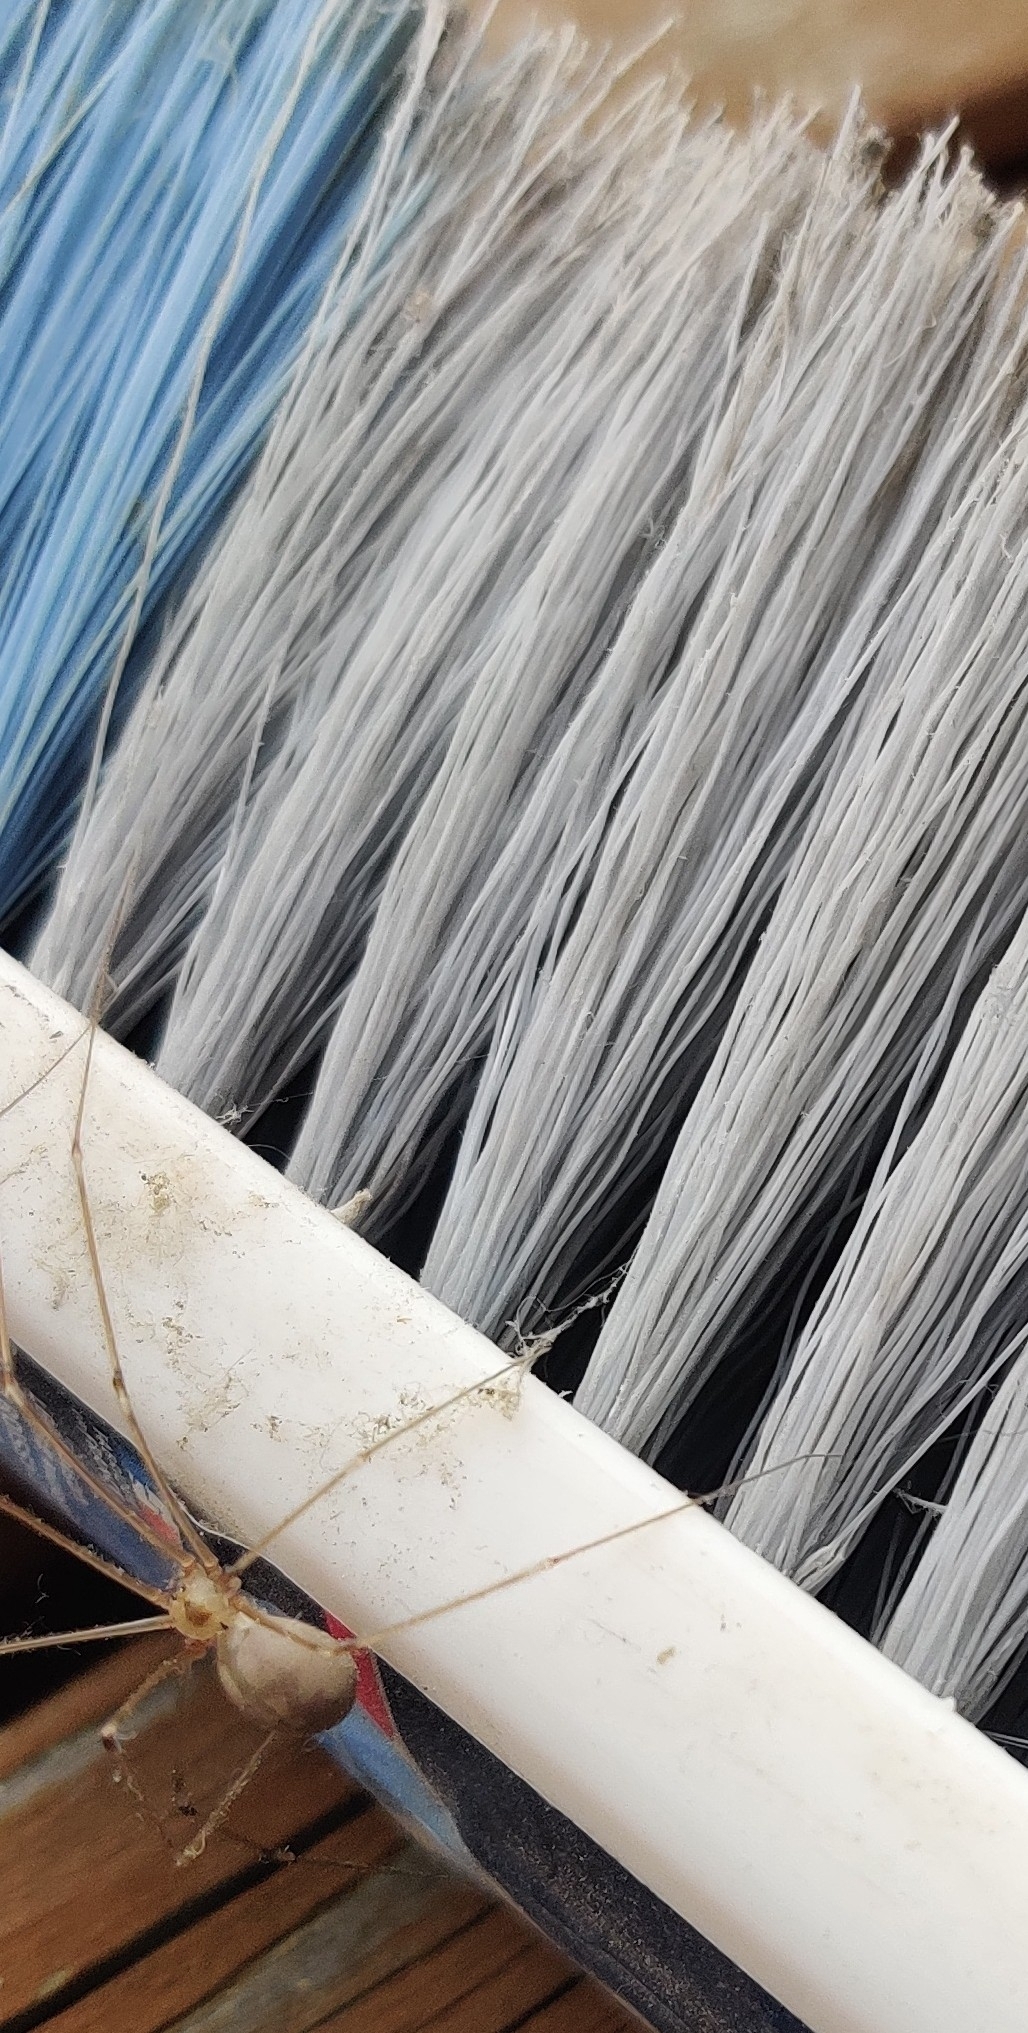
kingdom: Animalia
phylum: Arthropoda
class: Arachnida
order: Araneae
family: Pholcidae
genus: Pholcus
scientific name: Pholcus phalangioides
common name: Longbodied cellar spider
